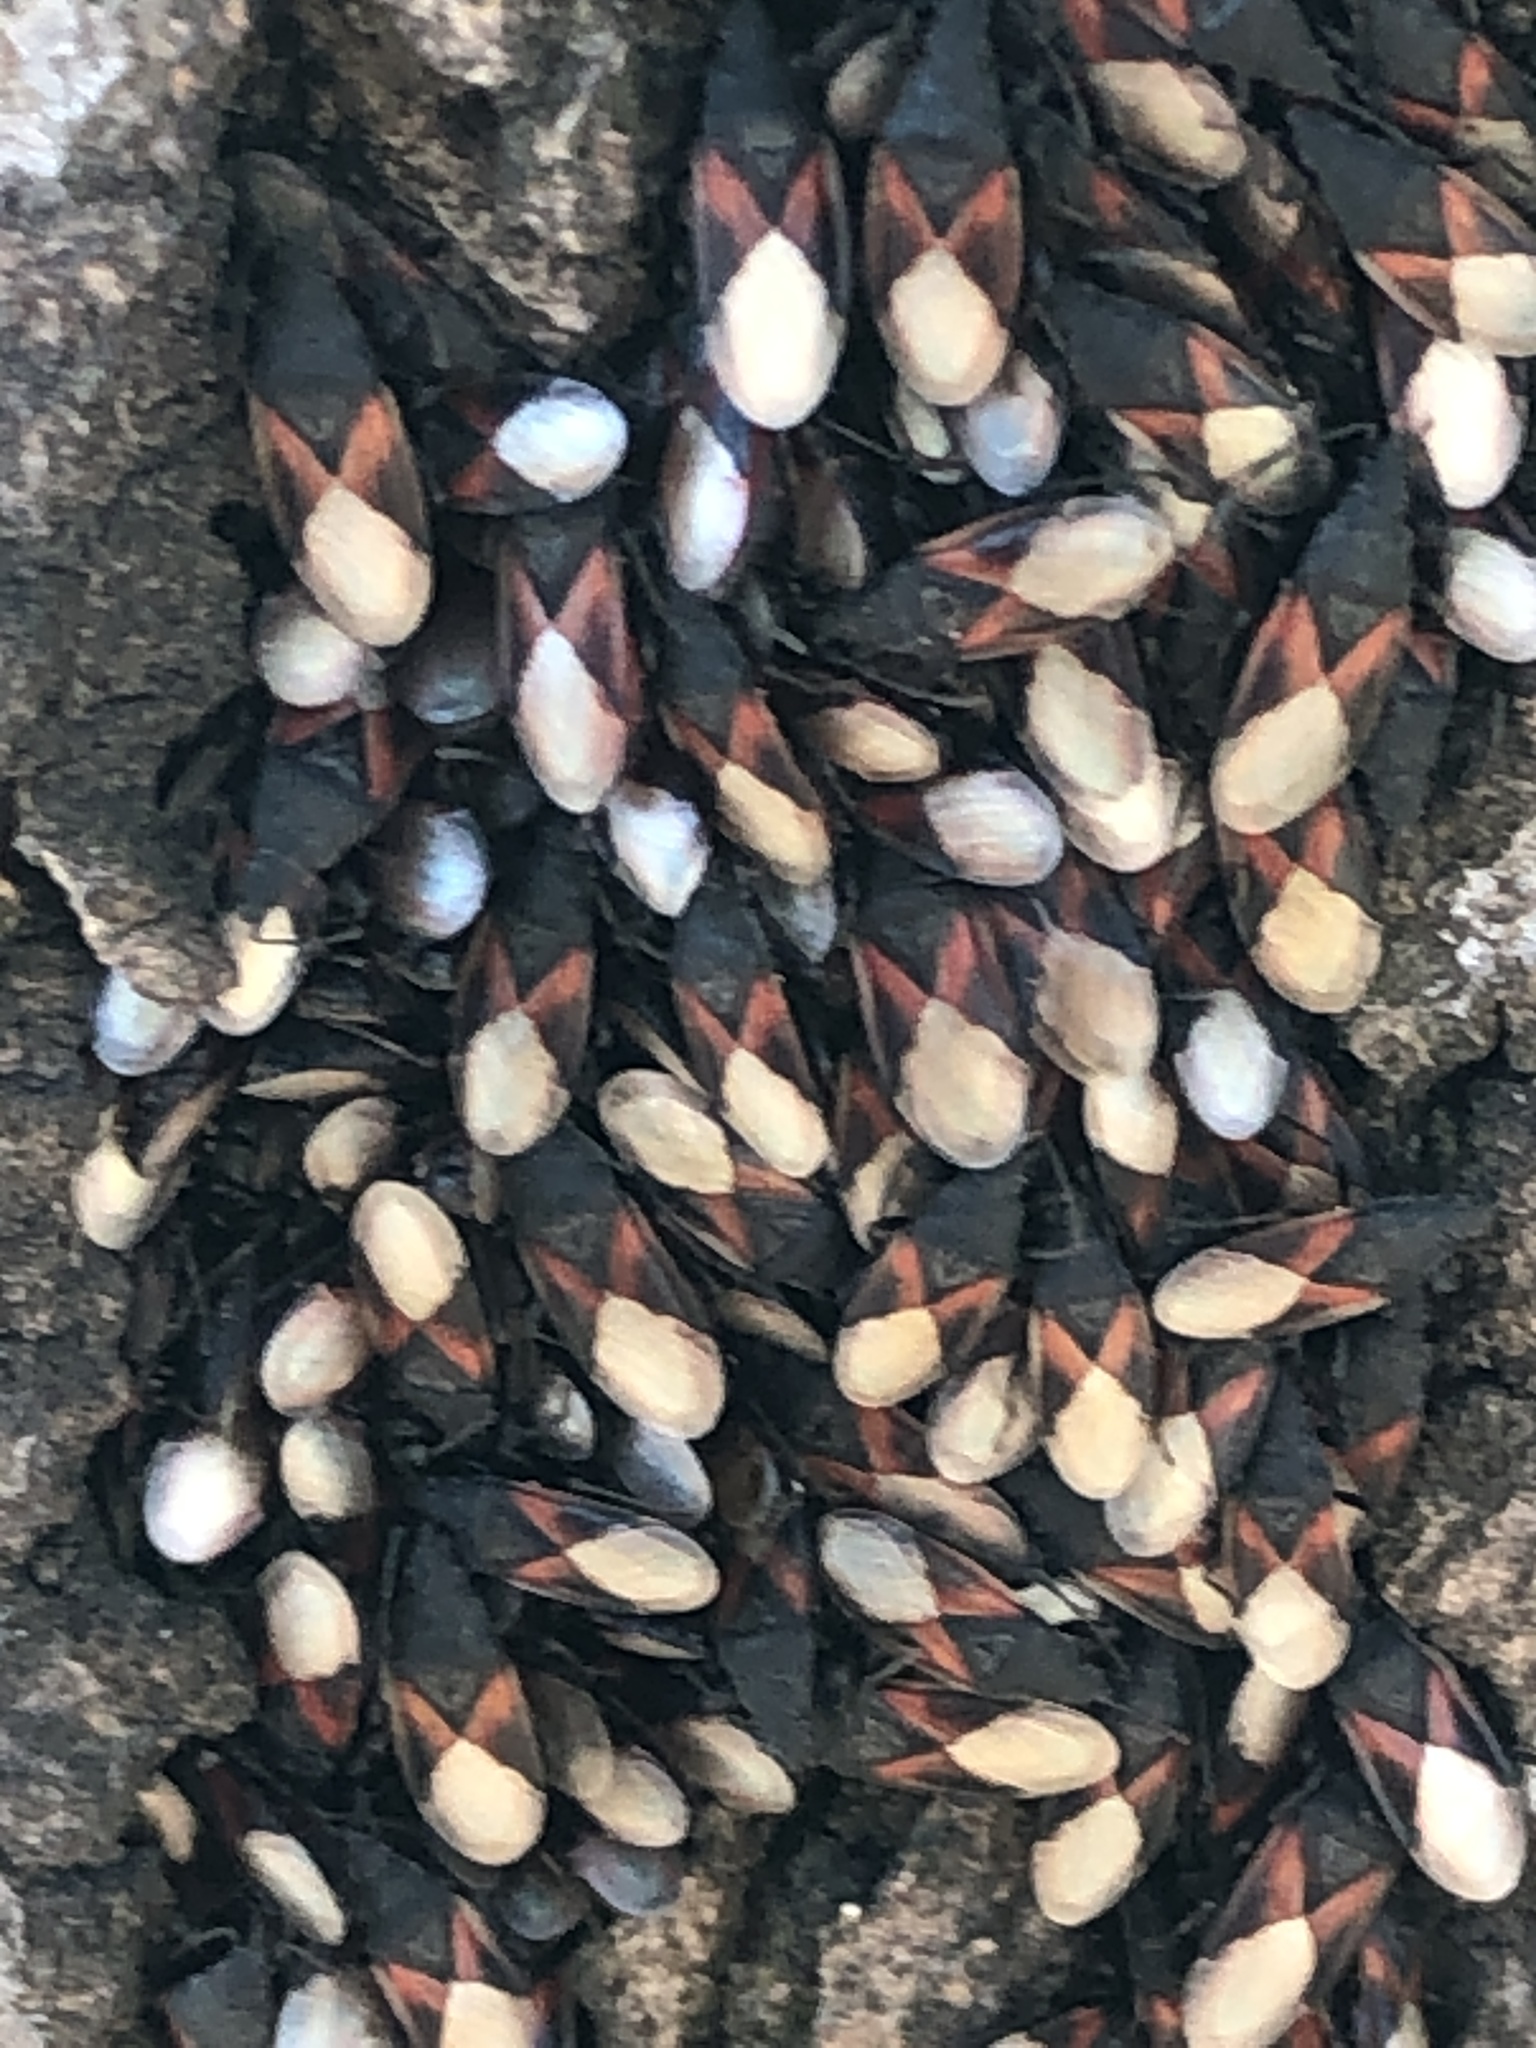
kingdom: Animalia
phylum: Arthropoda
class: Insecta
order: Hemiptera
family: Oxycarenidae
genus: Oxycarenus
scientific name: Oxycarenus lavaterae
